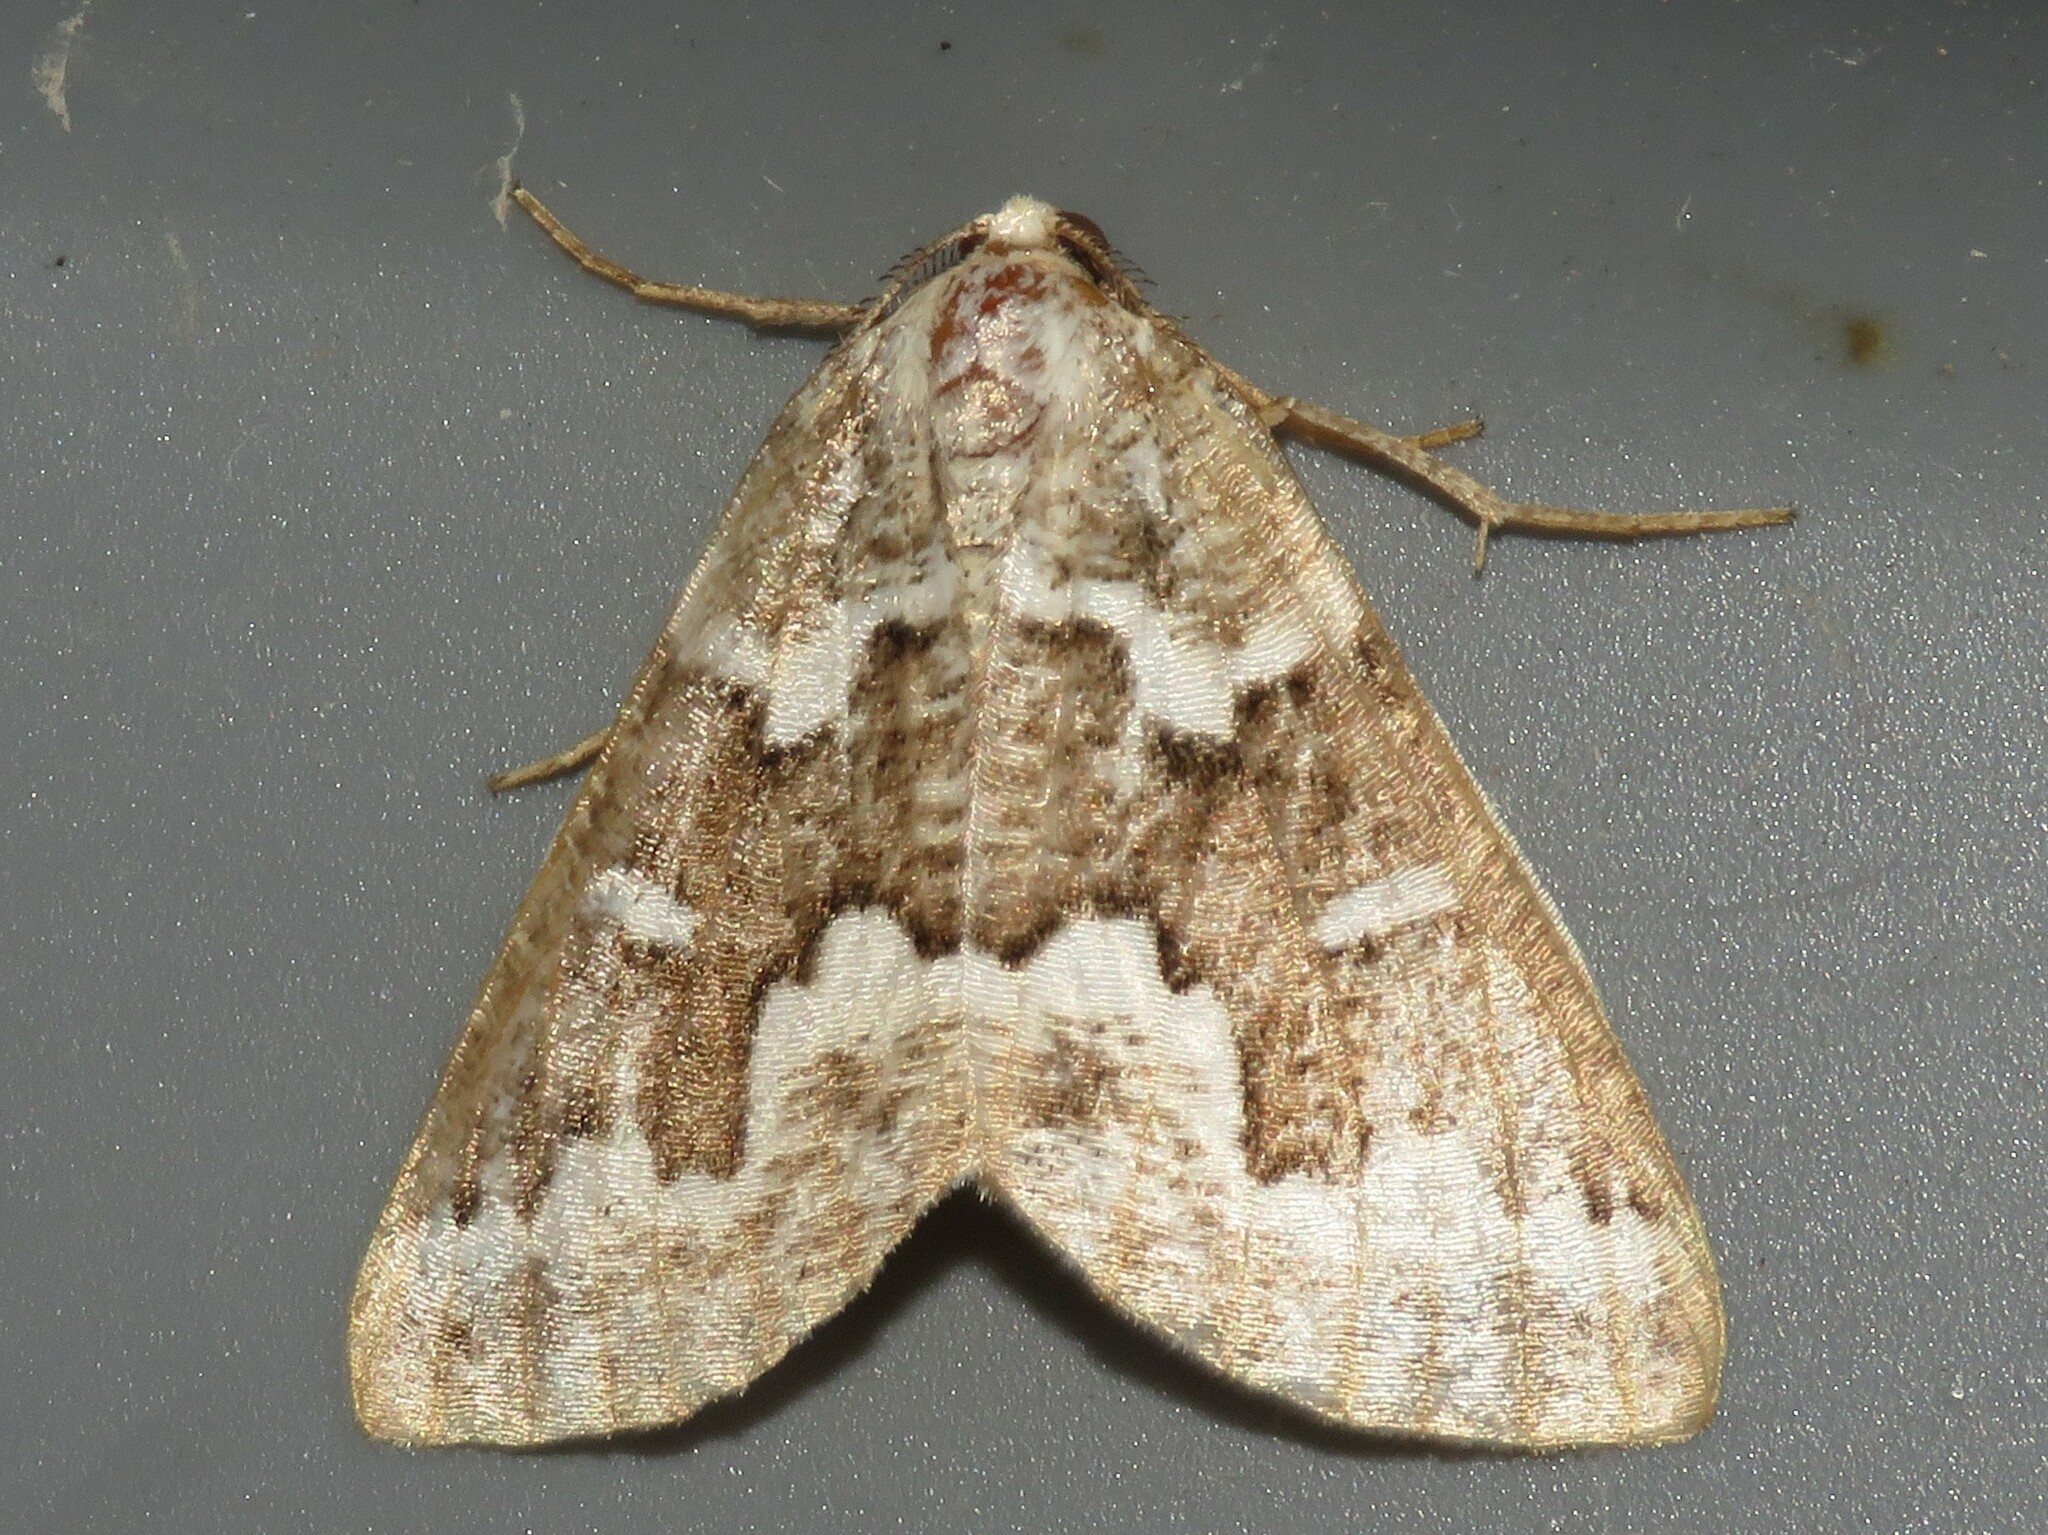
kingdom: Animalia
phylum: Arthropoda
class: Insecta
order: Lepidoptera
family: Geometridae
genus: Caripeta
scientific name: Caripeta divisata
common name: Gray spruce looper
